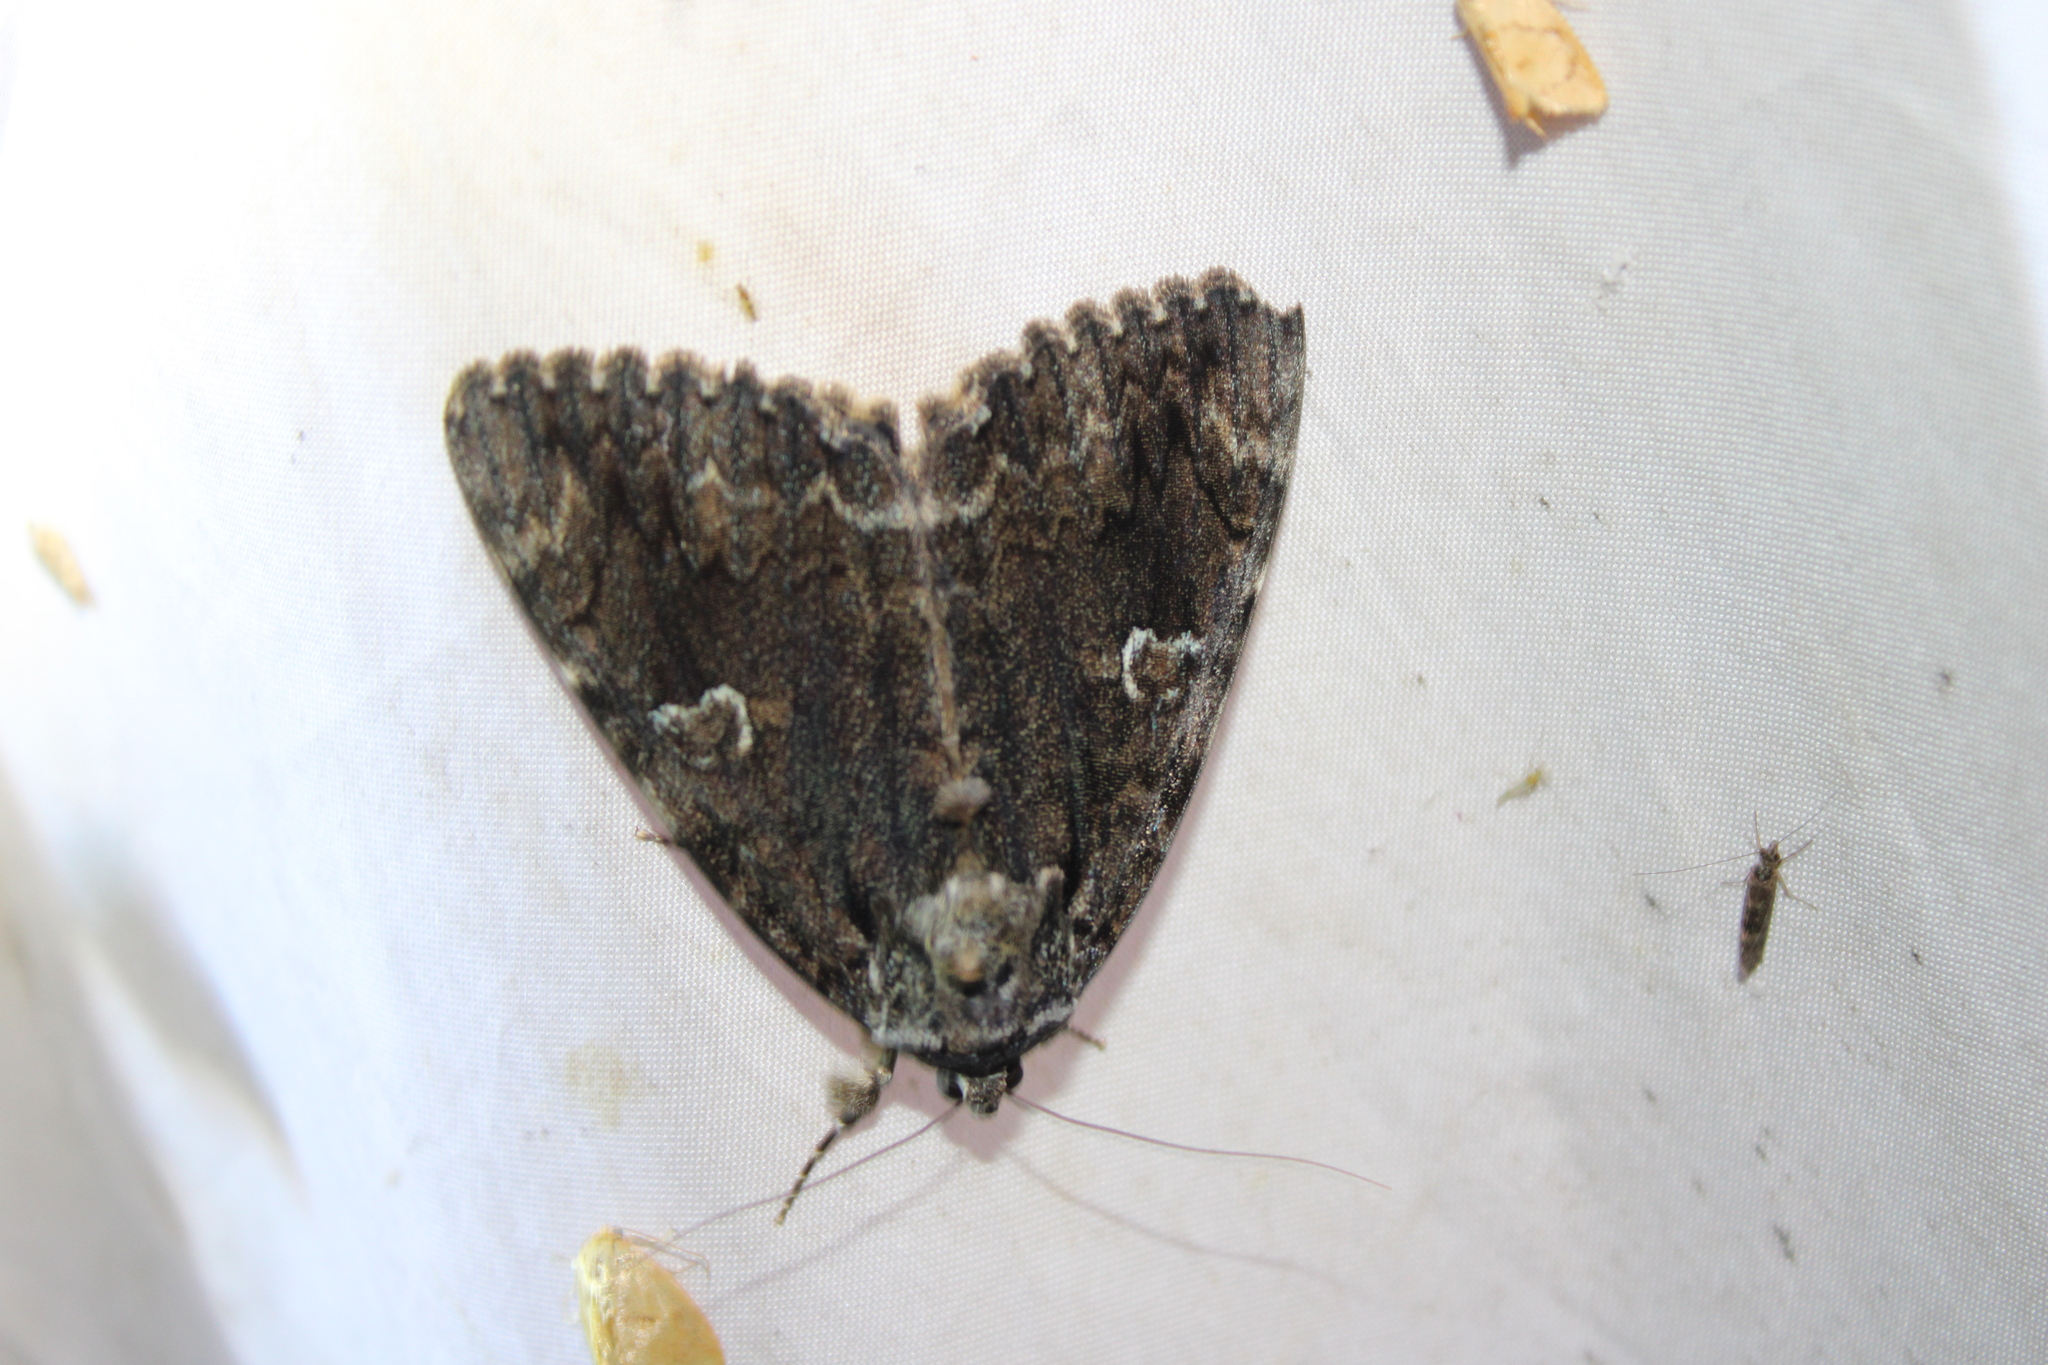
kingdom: Animalia
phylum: Arthropoda
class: Insecta
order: Lepidoptera
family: Erebidae
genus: Catocala
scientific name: Catocala ilia
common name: Ilia underwing
